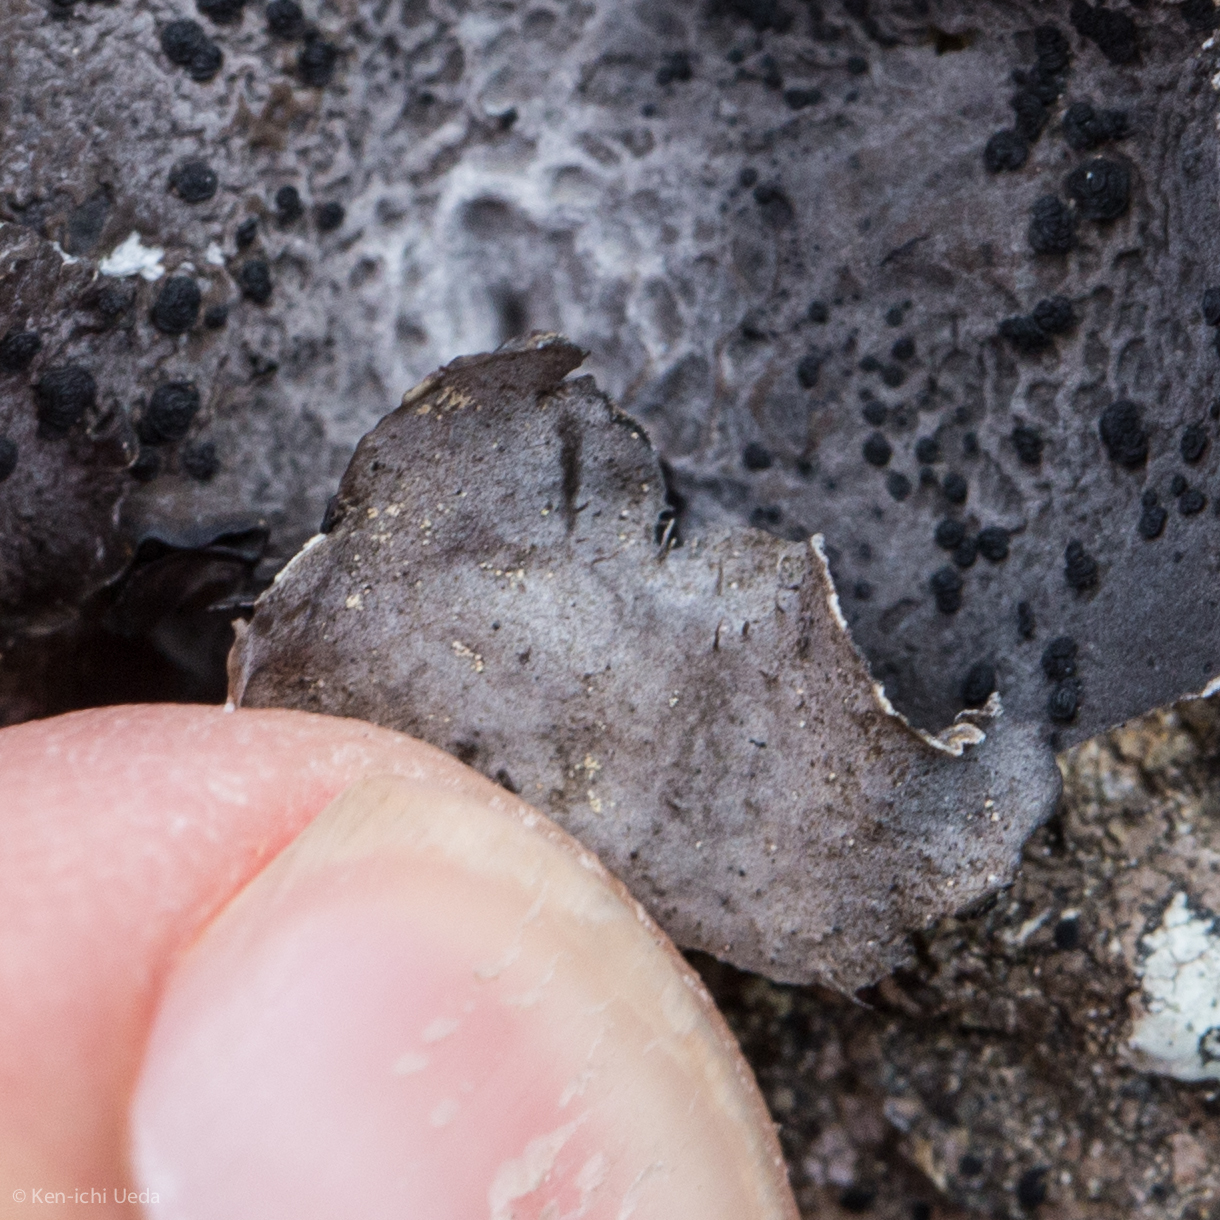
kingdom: Fungi
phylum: Ascomycota
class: Lecanoromycetes
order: Umbilicariales
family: Umbilicariaceae
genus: Umbilicaria
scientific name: Umbilicaria proboscidea
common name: Greater salted rocktripe lichen
